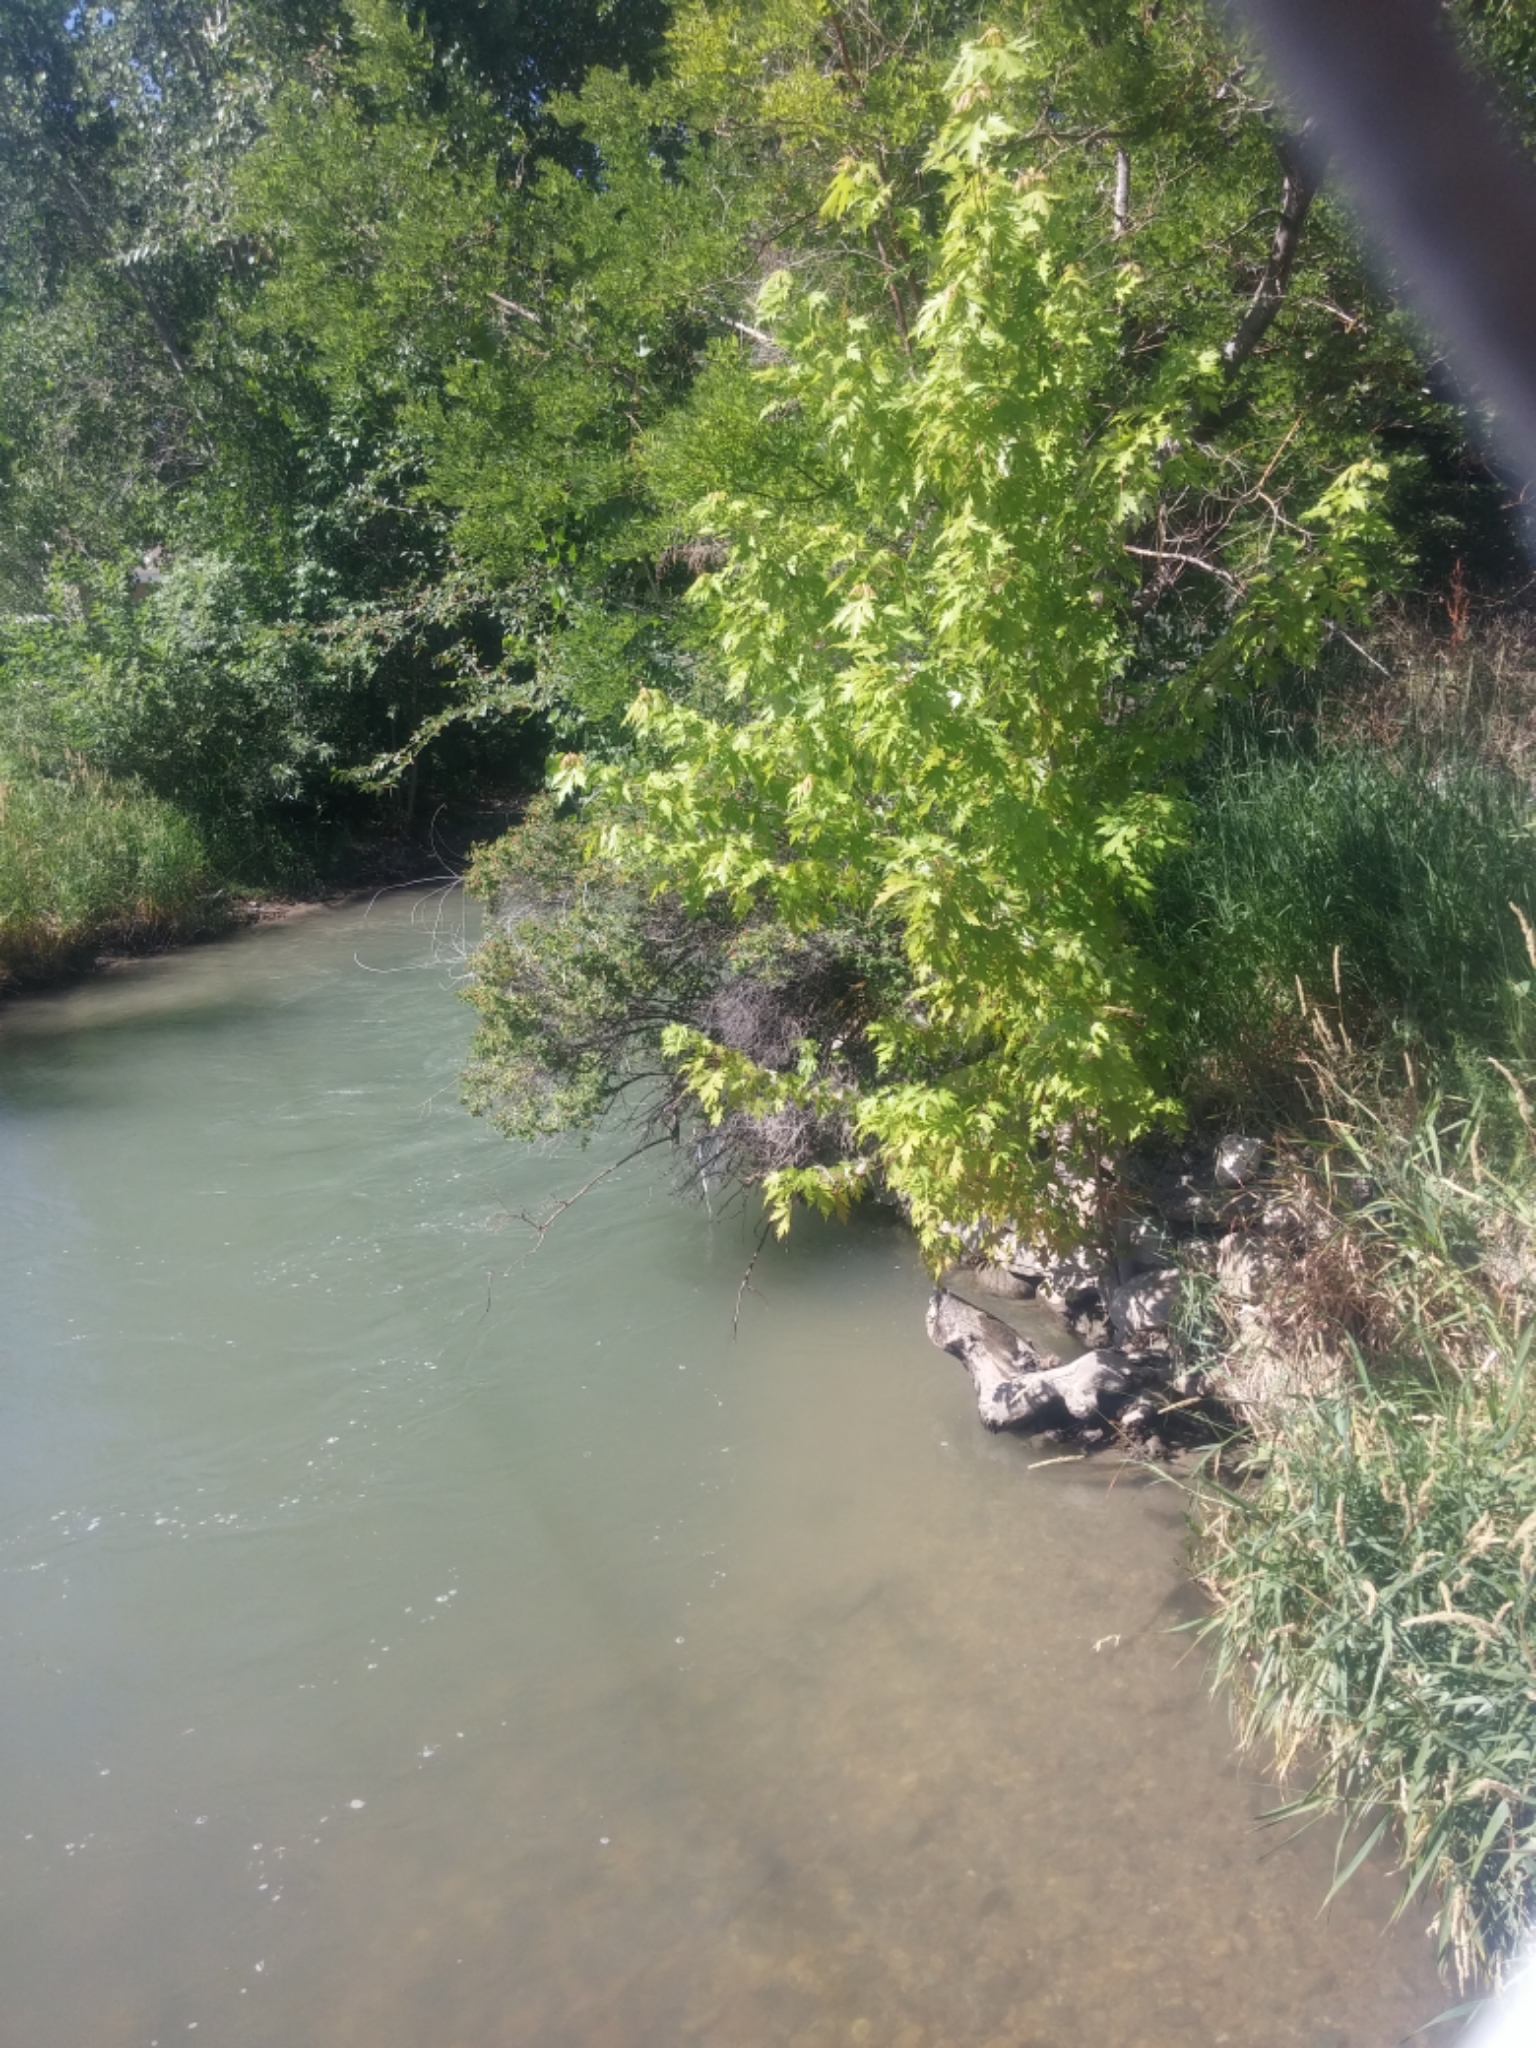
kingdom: Plantae
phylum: Tracheophyta
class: Magnoliopsida
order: Sapindales
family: Sapindaceae
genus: Acer
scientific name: Acer saccharinum
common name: Silver maple
